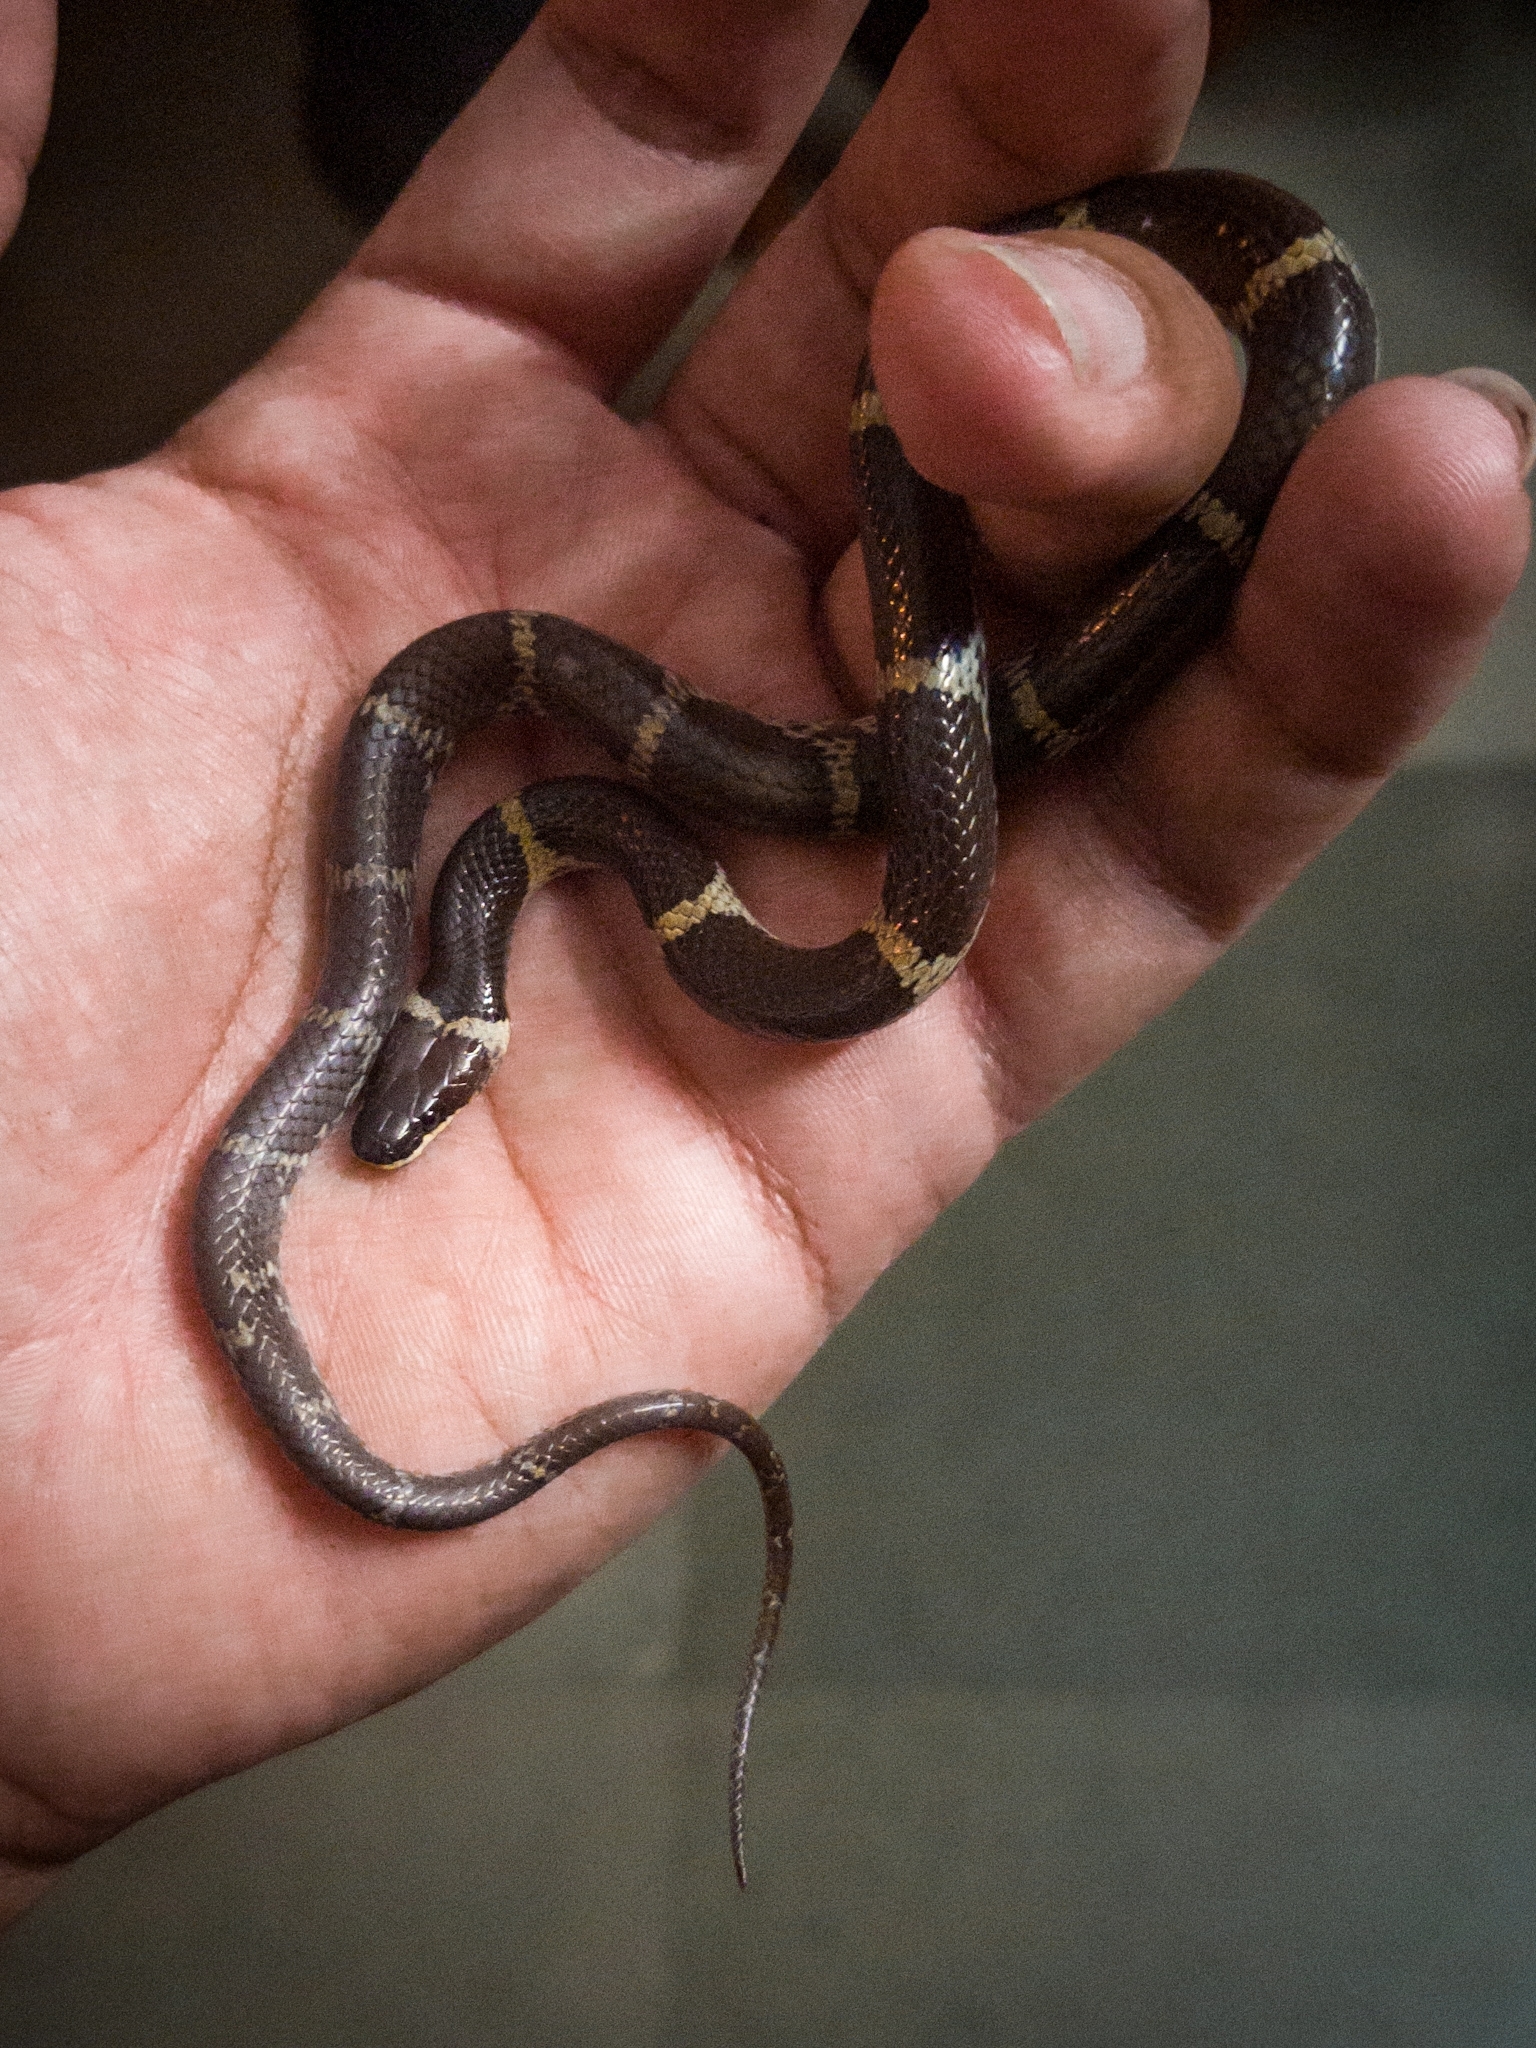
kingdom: Animalia
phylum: Chordata
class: Squamata
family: Colubridae
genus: Lycodon
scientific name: Lycodon aulicus
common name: Common wolf snake
